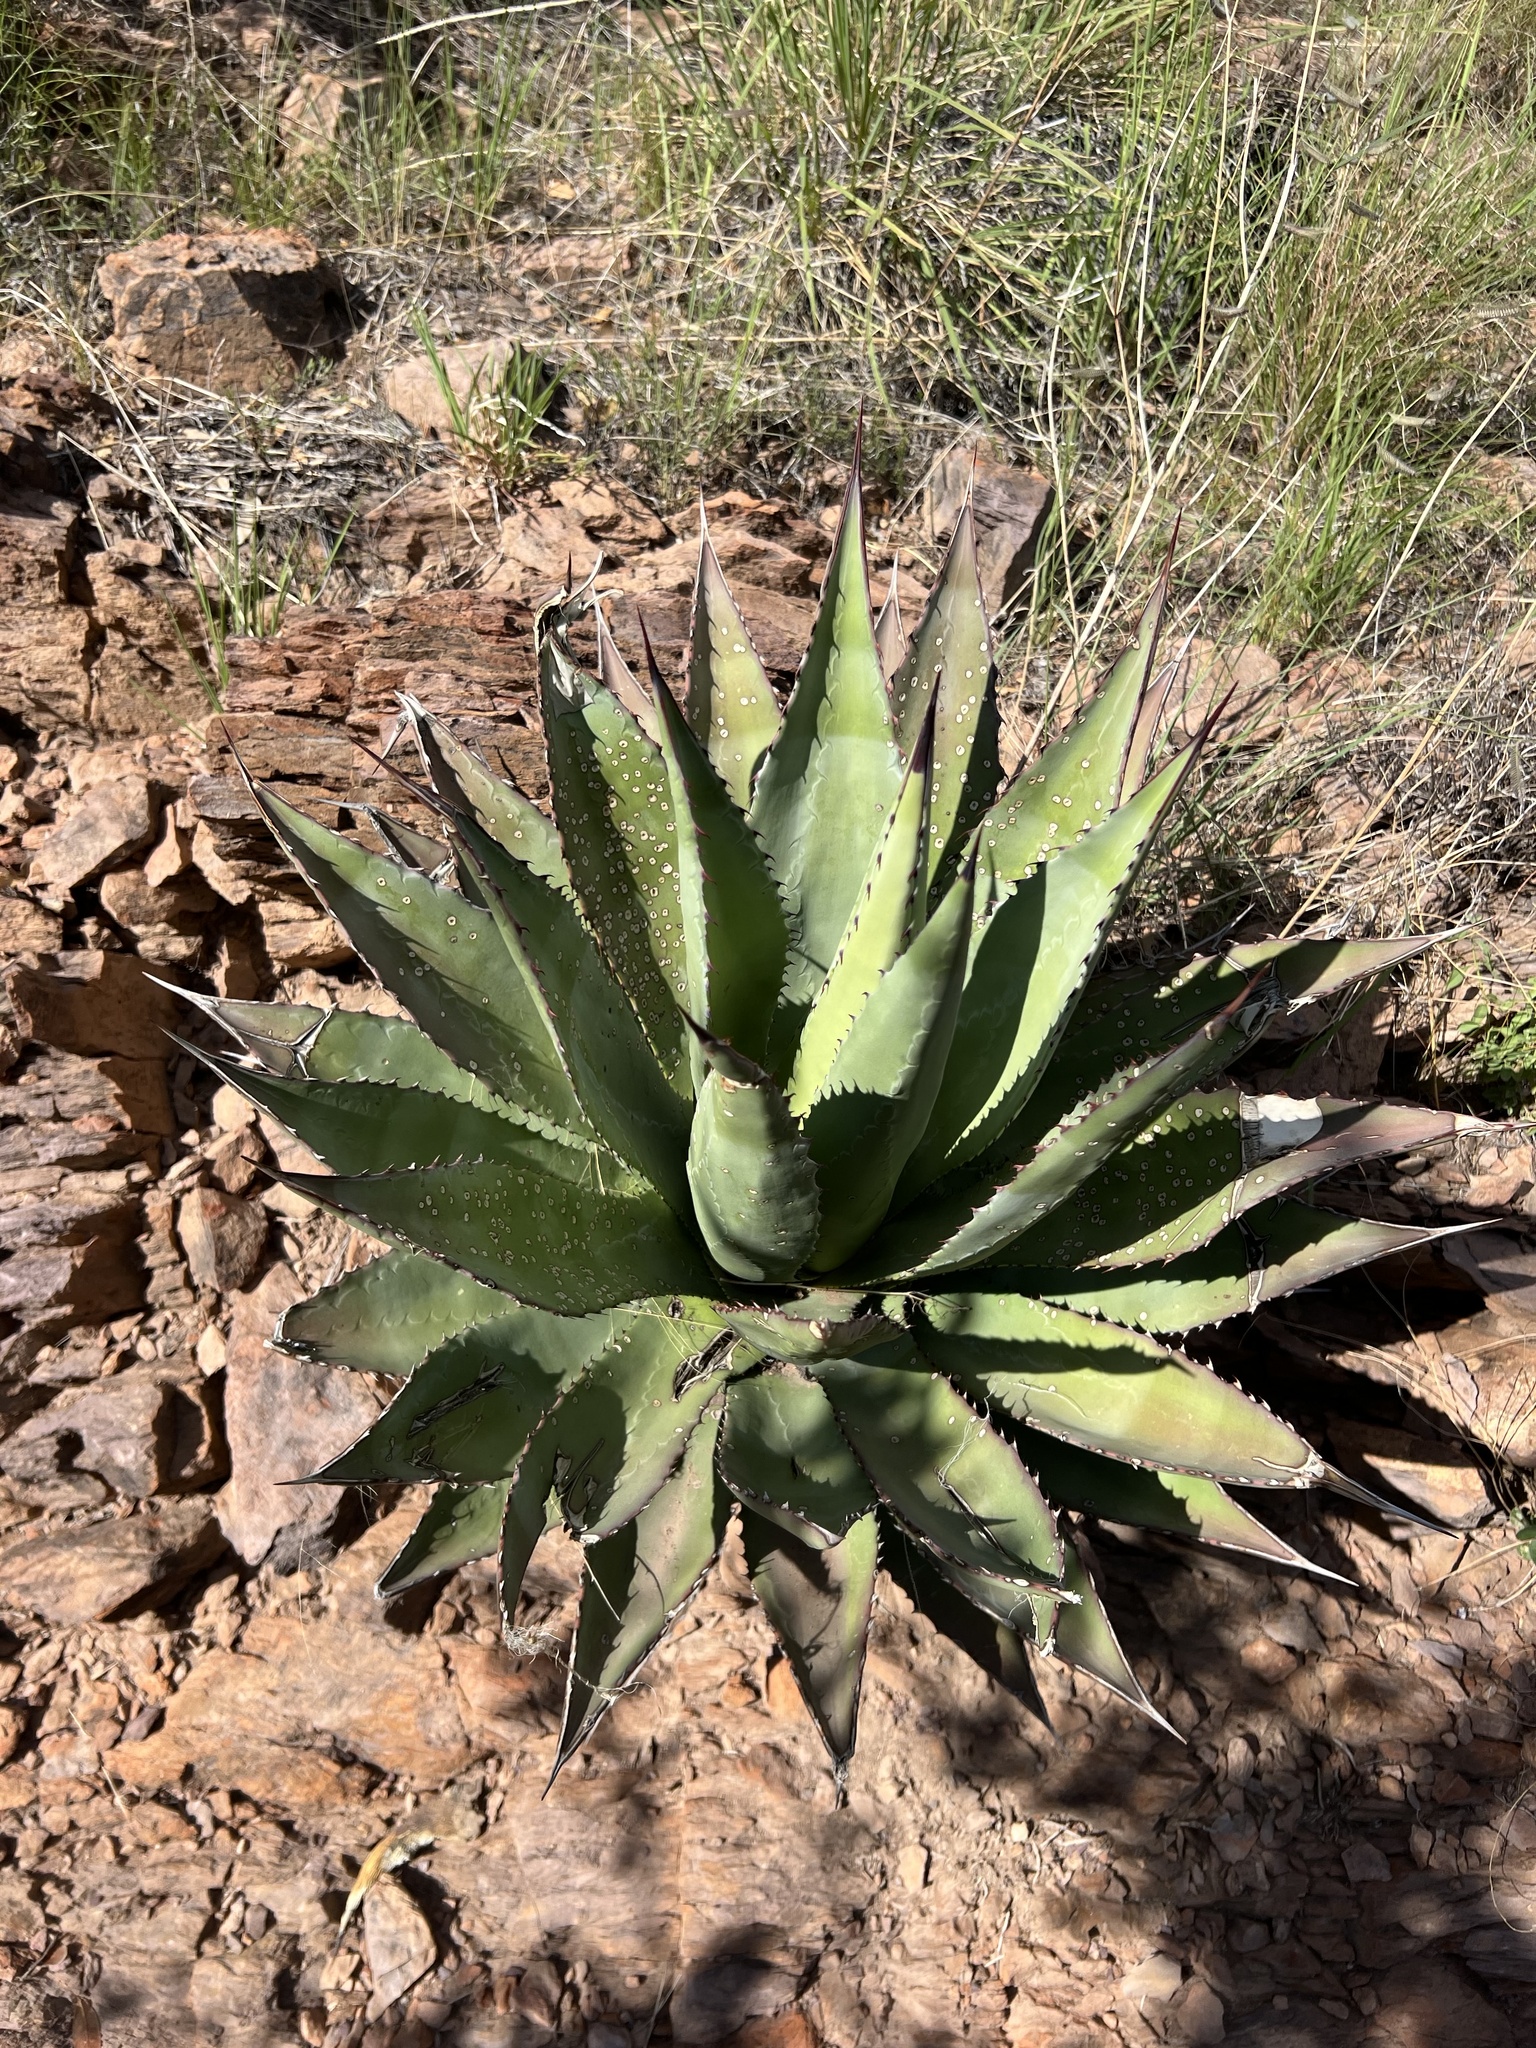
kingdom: Plantae
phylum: Tracheophyta
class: Liliopsida
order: Asparagales
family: Asparagaceae
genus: Agave
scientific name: Agave palmeri
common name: Palmer agave
